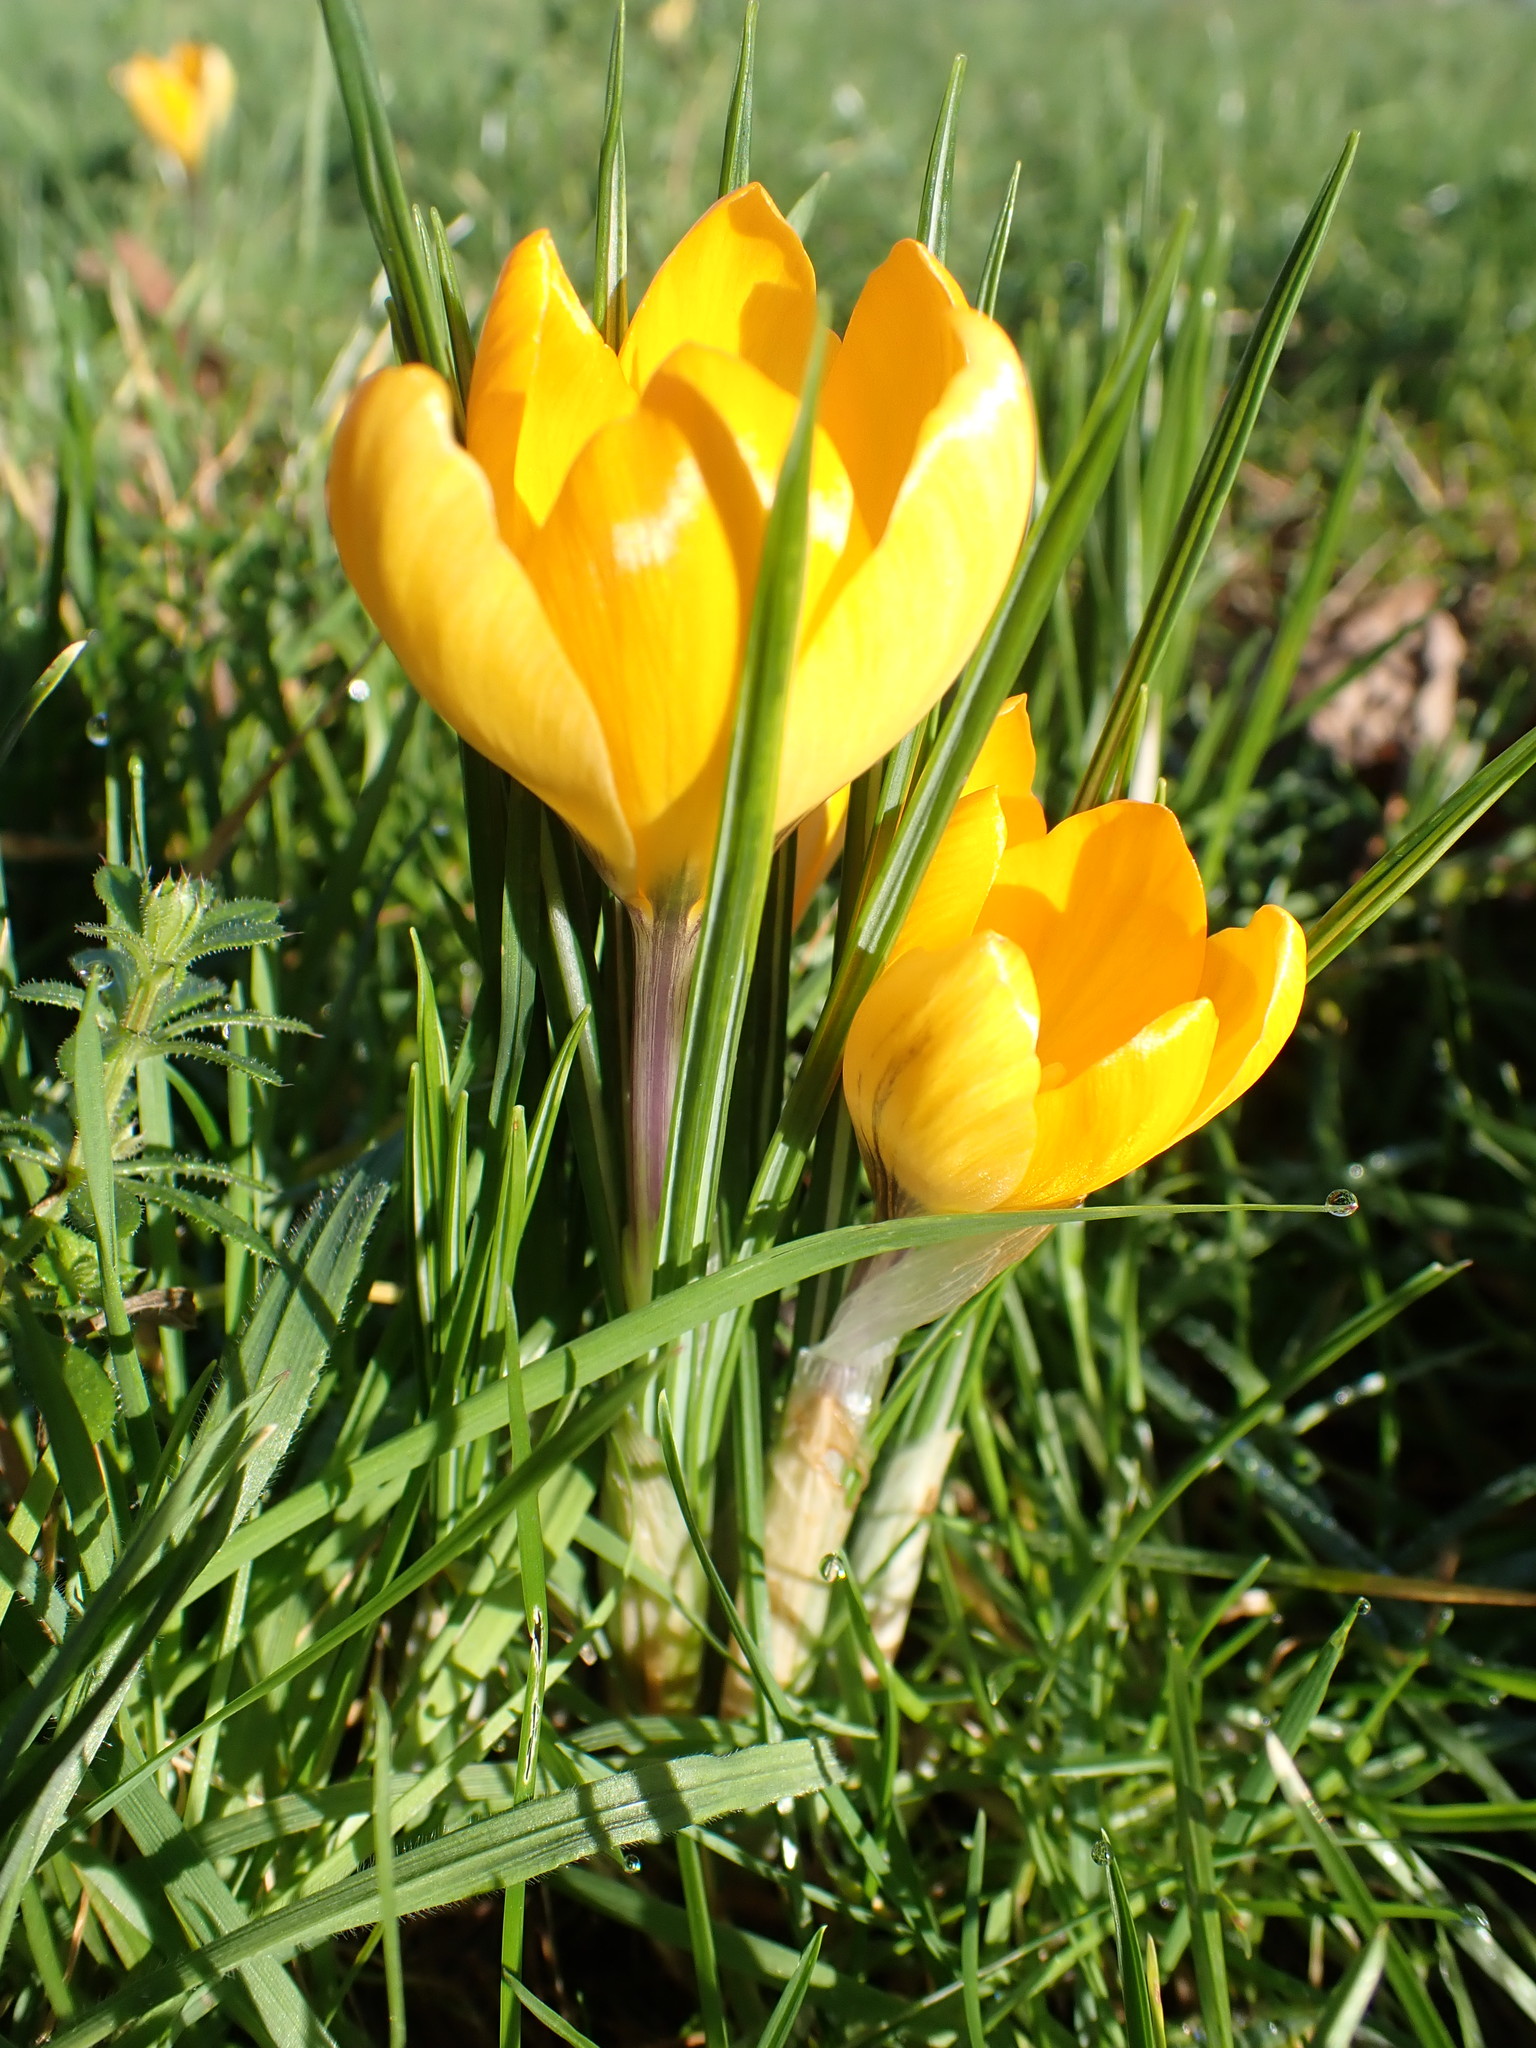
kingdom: Plantae
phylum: Tracheophyta
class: Liliopsida
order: Asparagales
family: Iridaceae
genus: Crocus
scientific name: Crocus luteus
